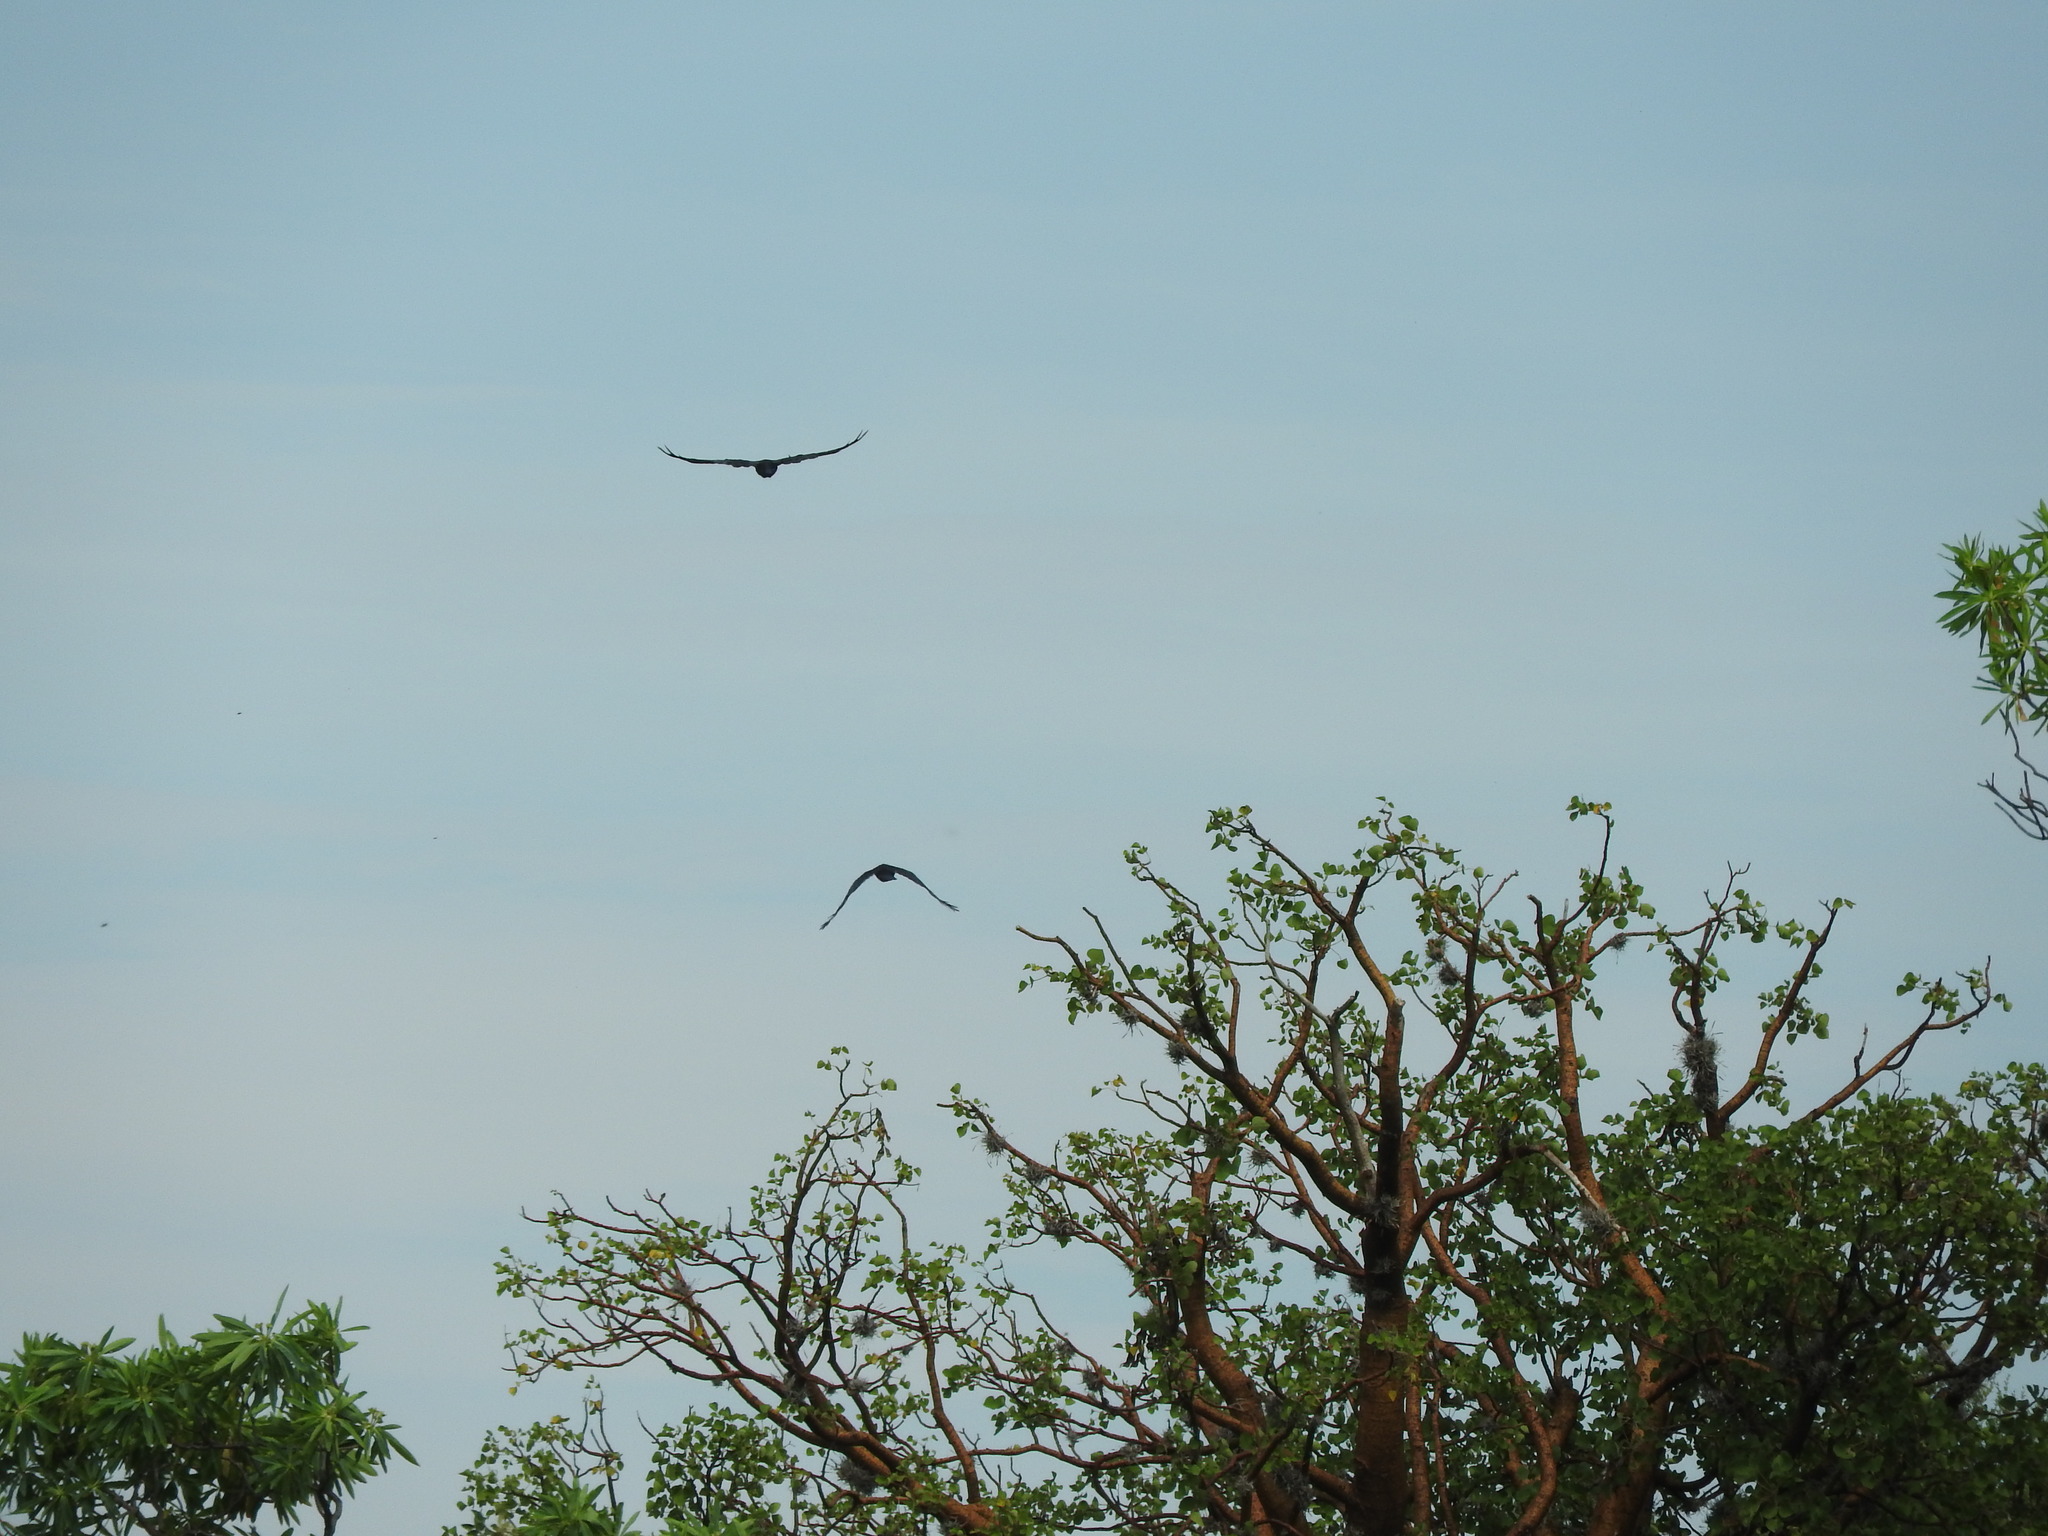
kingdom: Animalia
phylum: Chordata
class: Aves
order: Passeriformes
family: Corvidae
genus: Corvus
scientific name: Corvus corax
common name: Common raven
